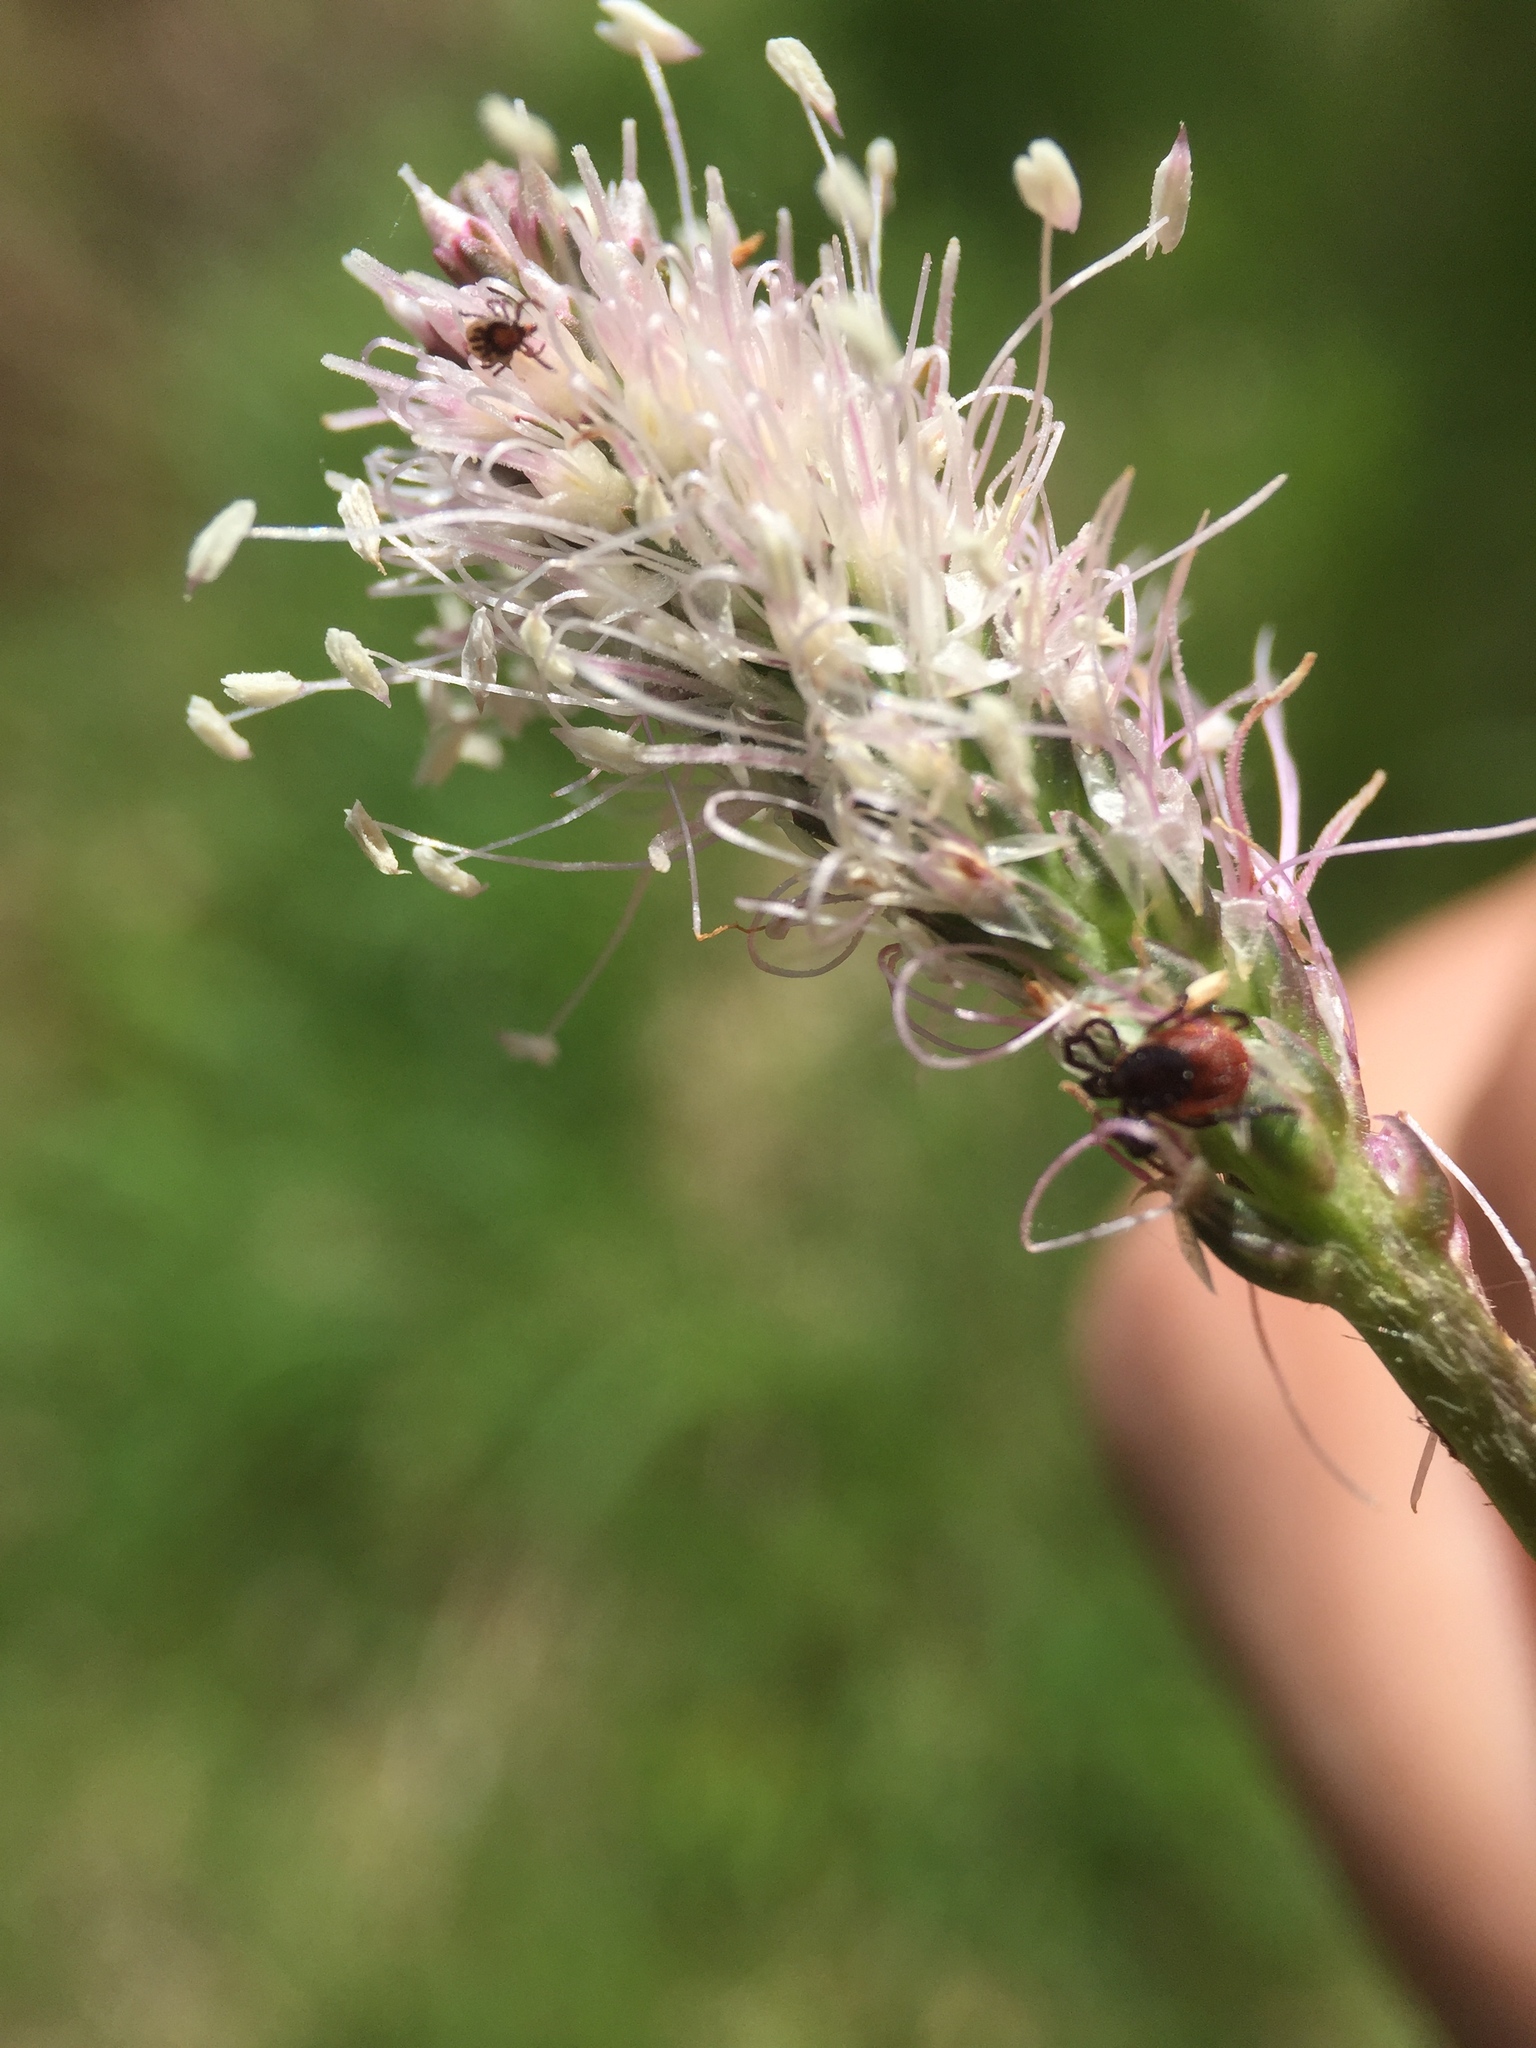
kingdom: Animalia
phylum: Arthropoda
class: Arachnida
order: Ixodida
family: Ixodidae
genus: Ixodes
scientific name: Ixodes ricinus
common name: Castor bean tick
